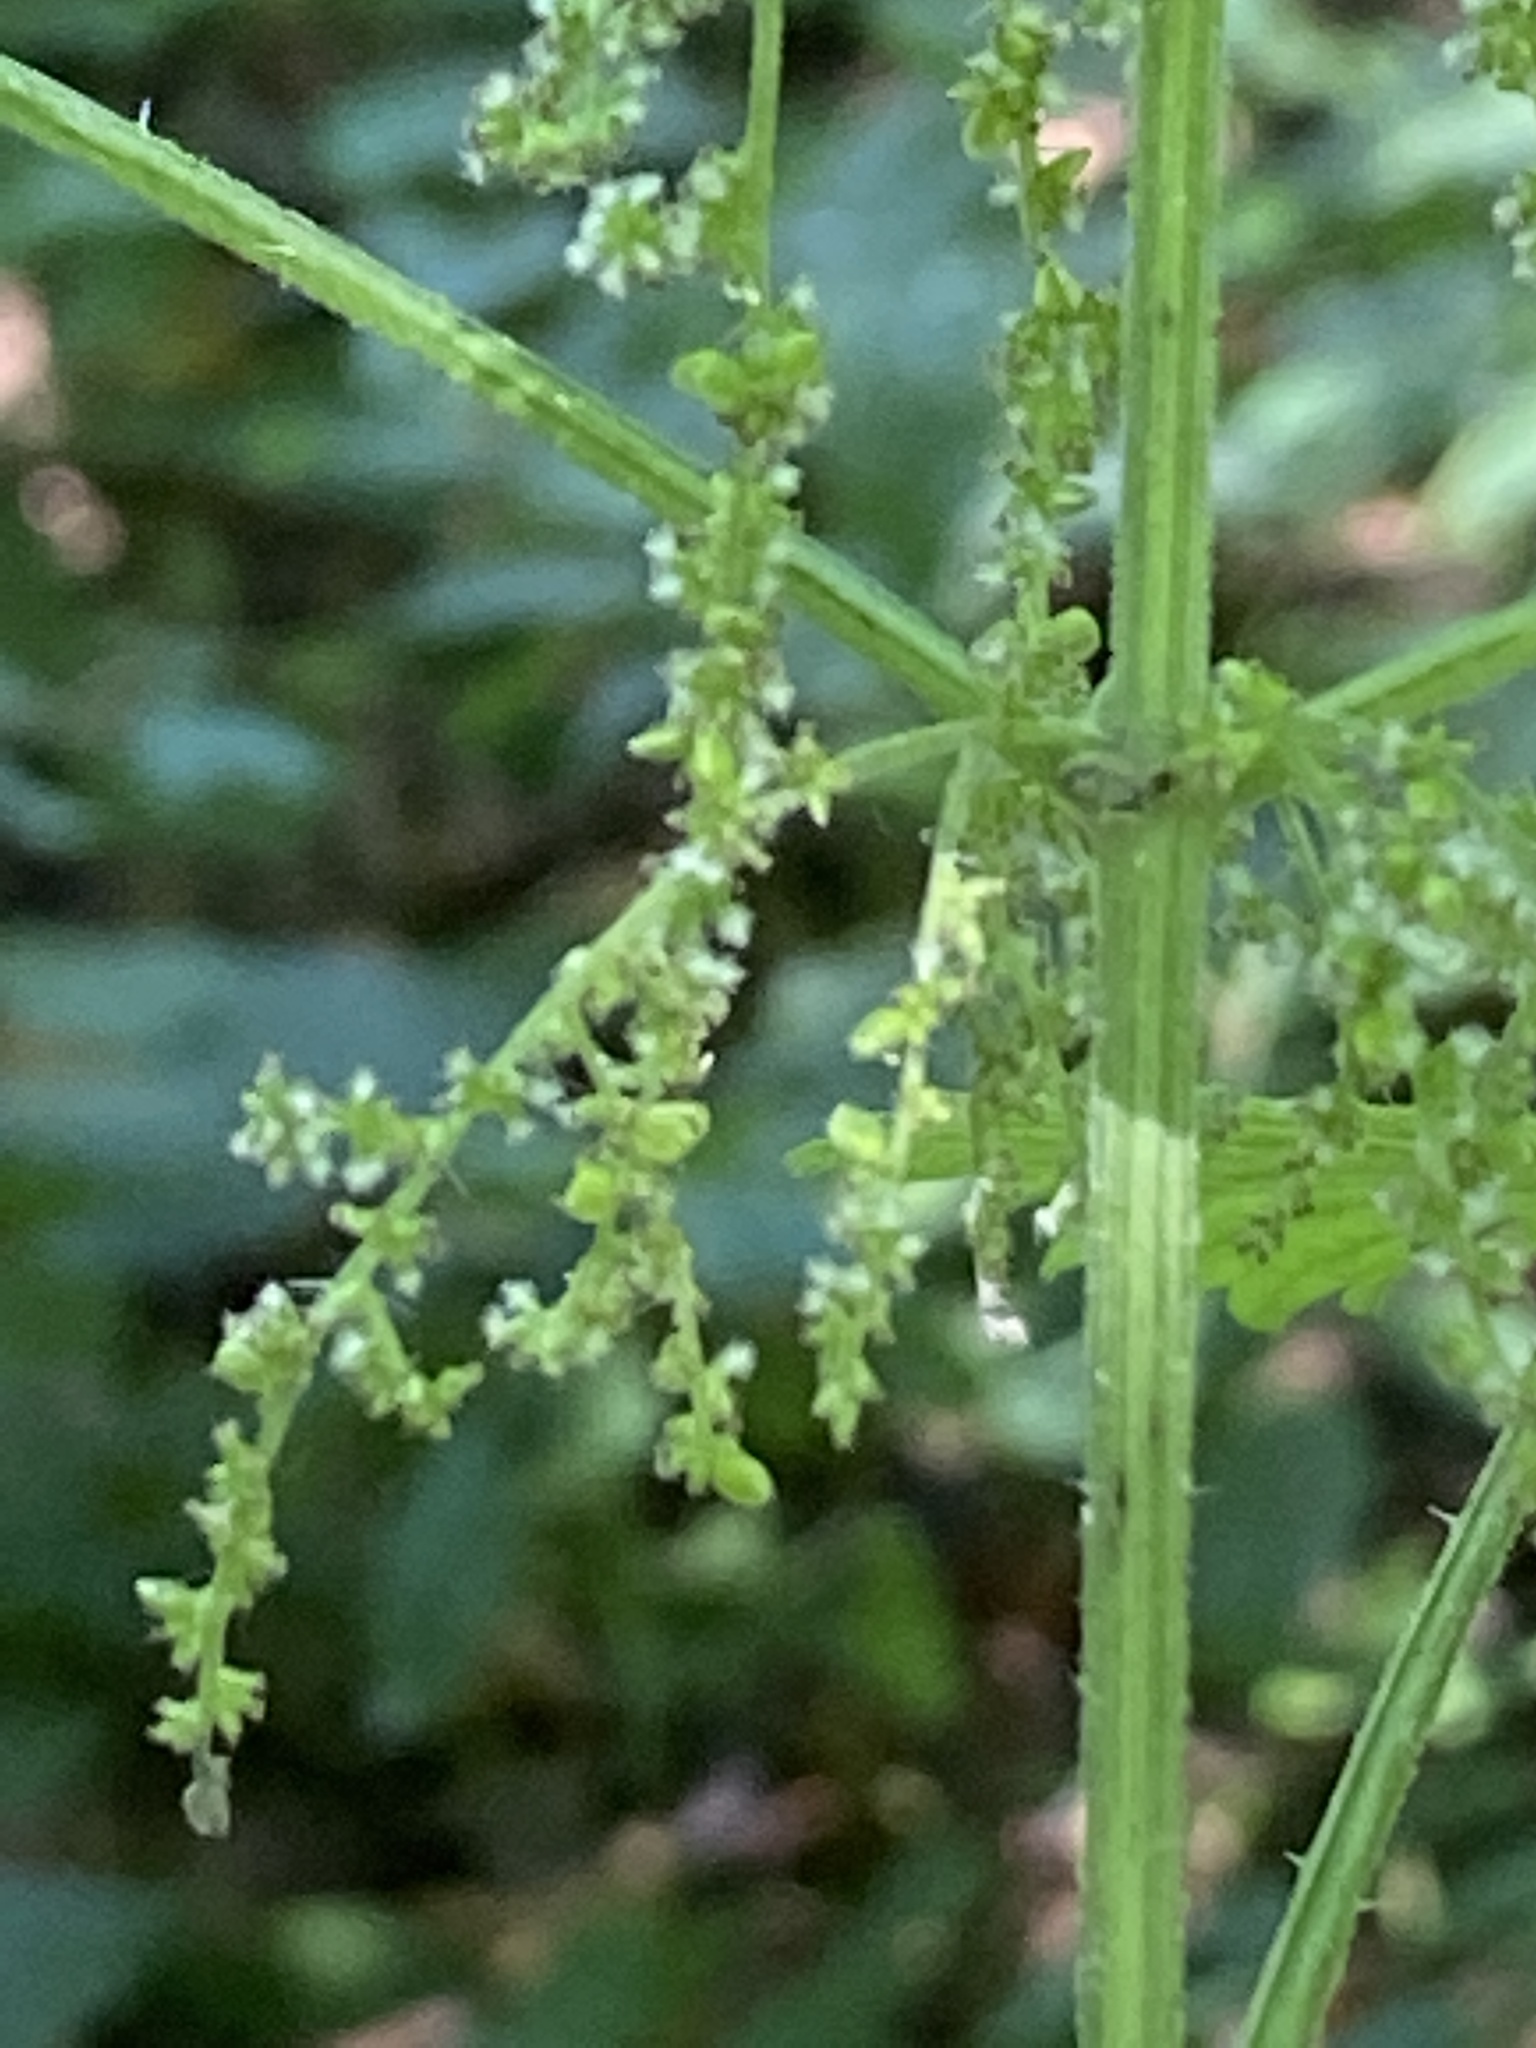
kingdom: Plantae
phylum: Tracheophyta
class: Magnoliopsida
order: Rosales
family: Urticaceae
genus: Urtica
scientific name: Urtica dioica
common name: Common nettle
